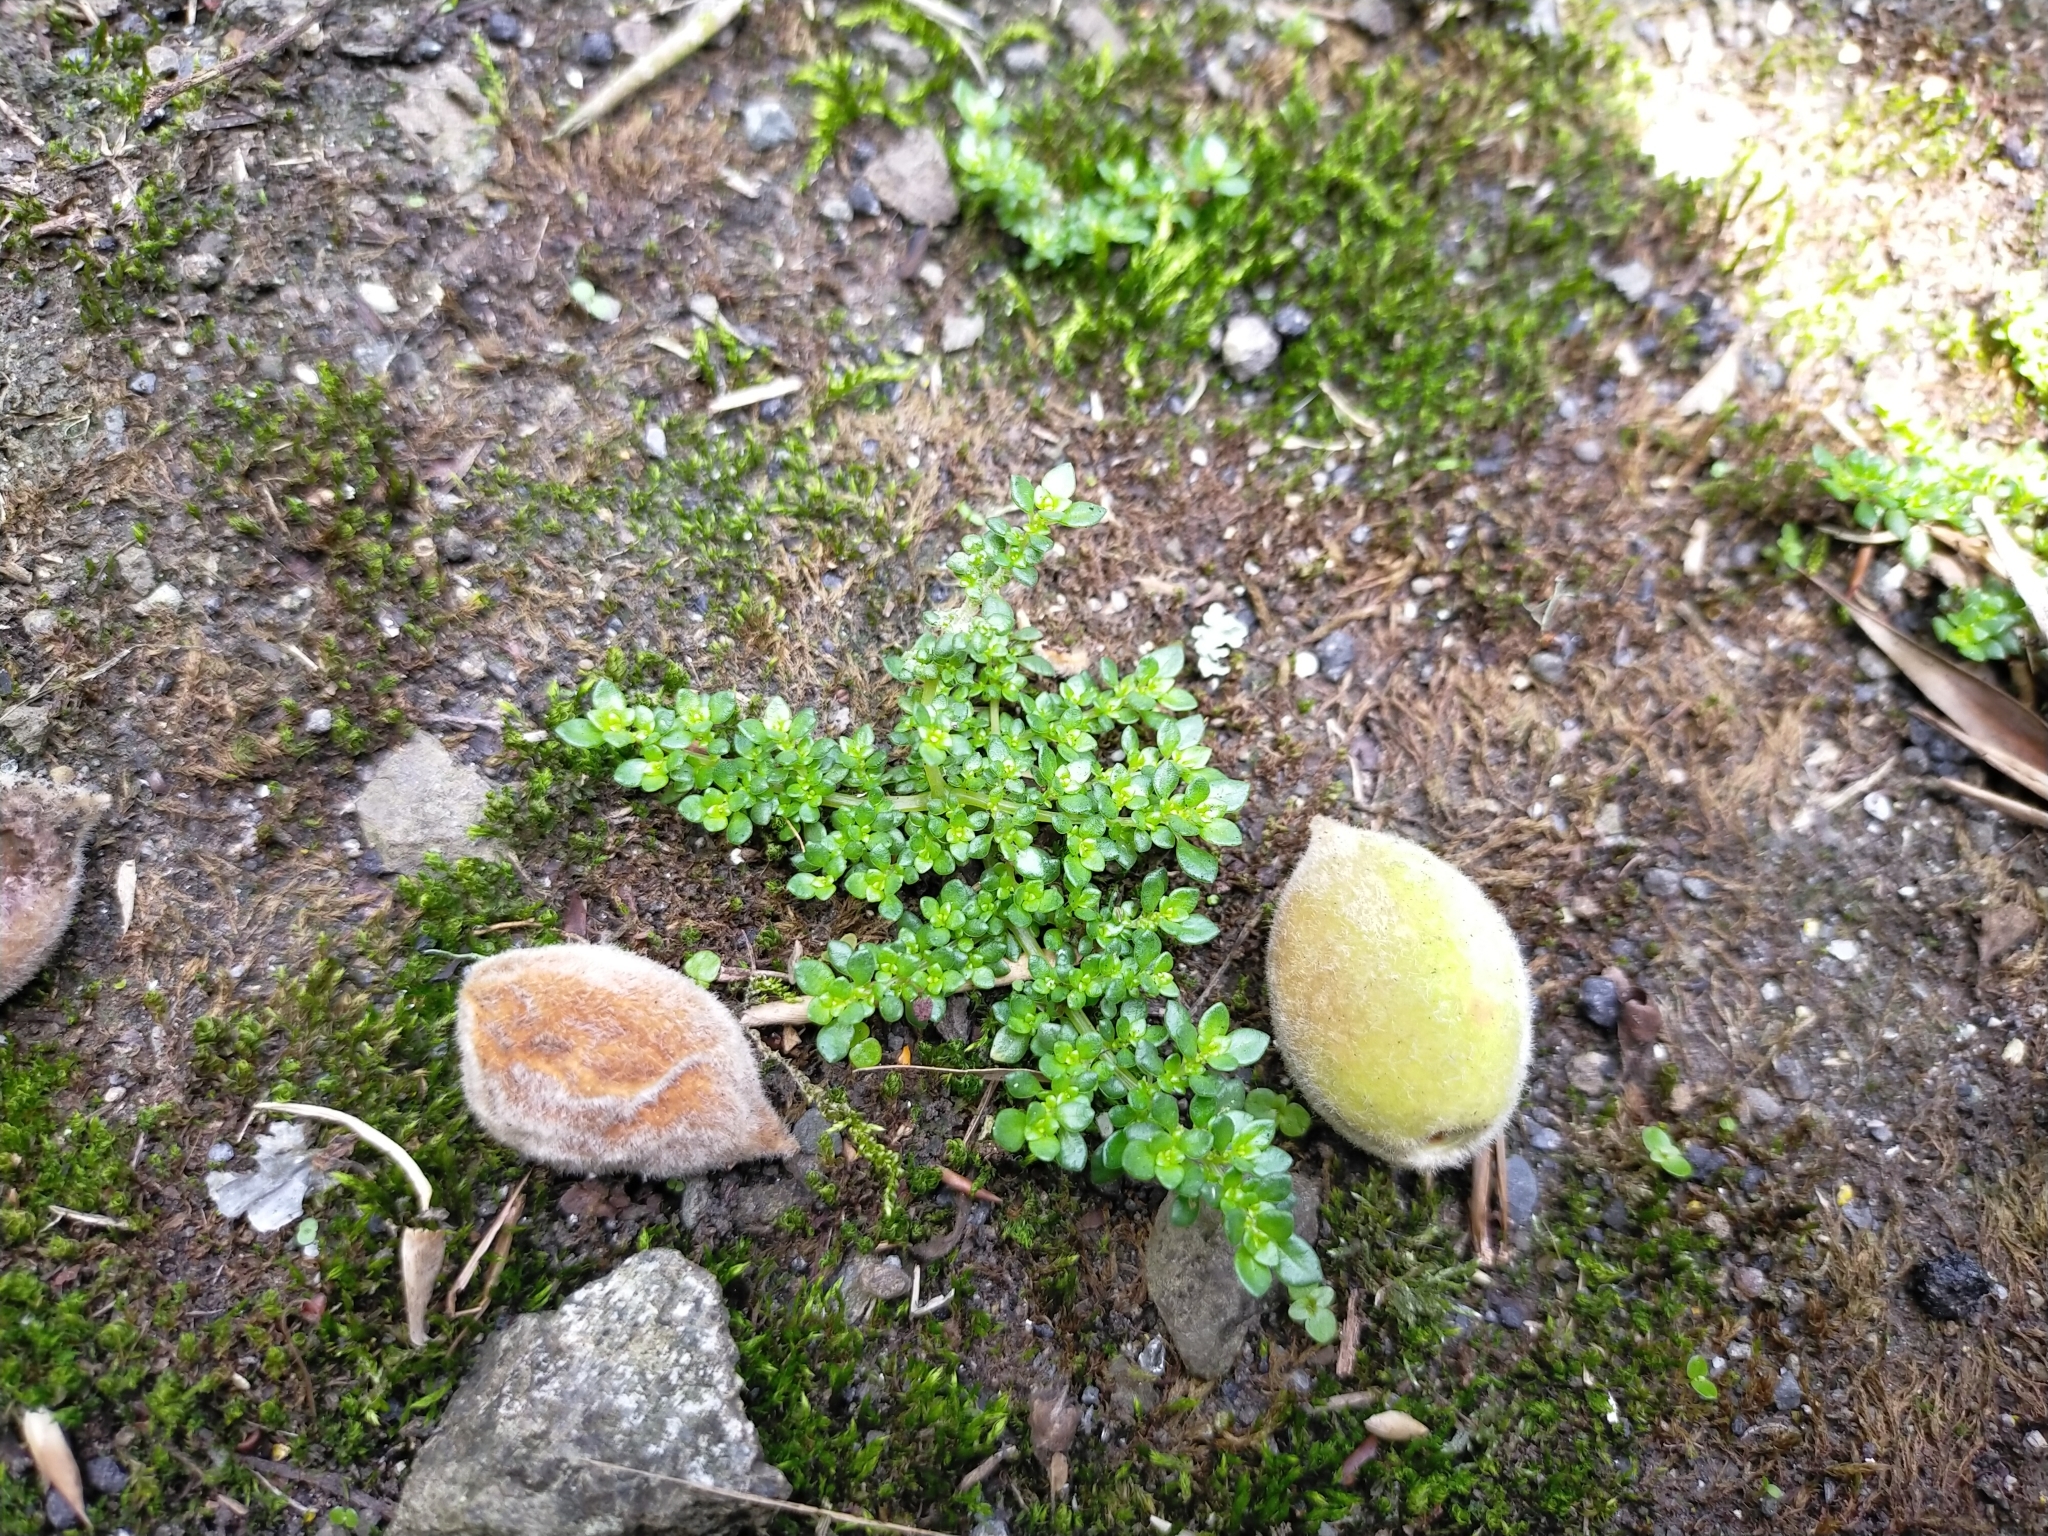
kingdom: Plantae
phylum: Tracheophyta
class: Magnoliopsida
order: Rosales
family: Urticaceae
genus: Pilea
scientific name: Pilea microphylla
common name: Artillery-plant
